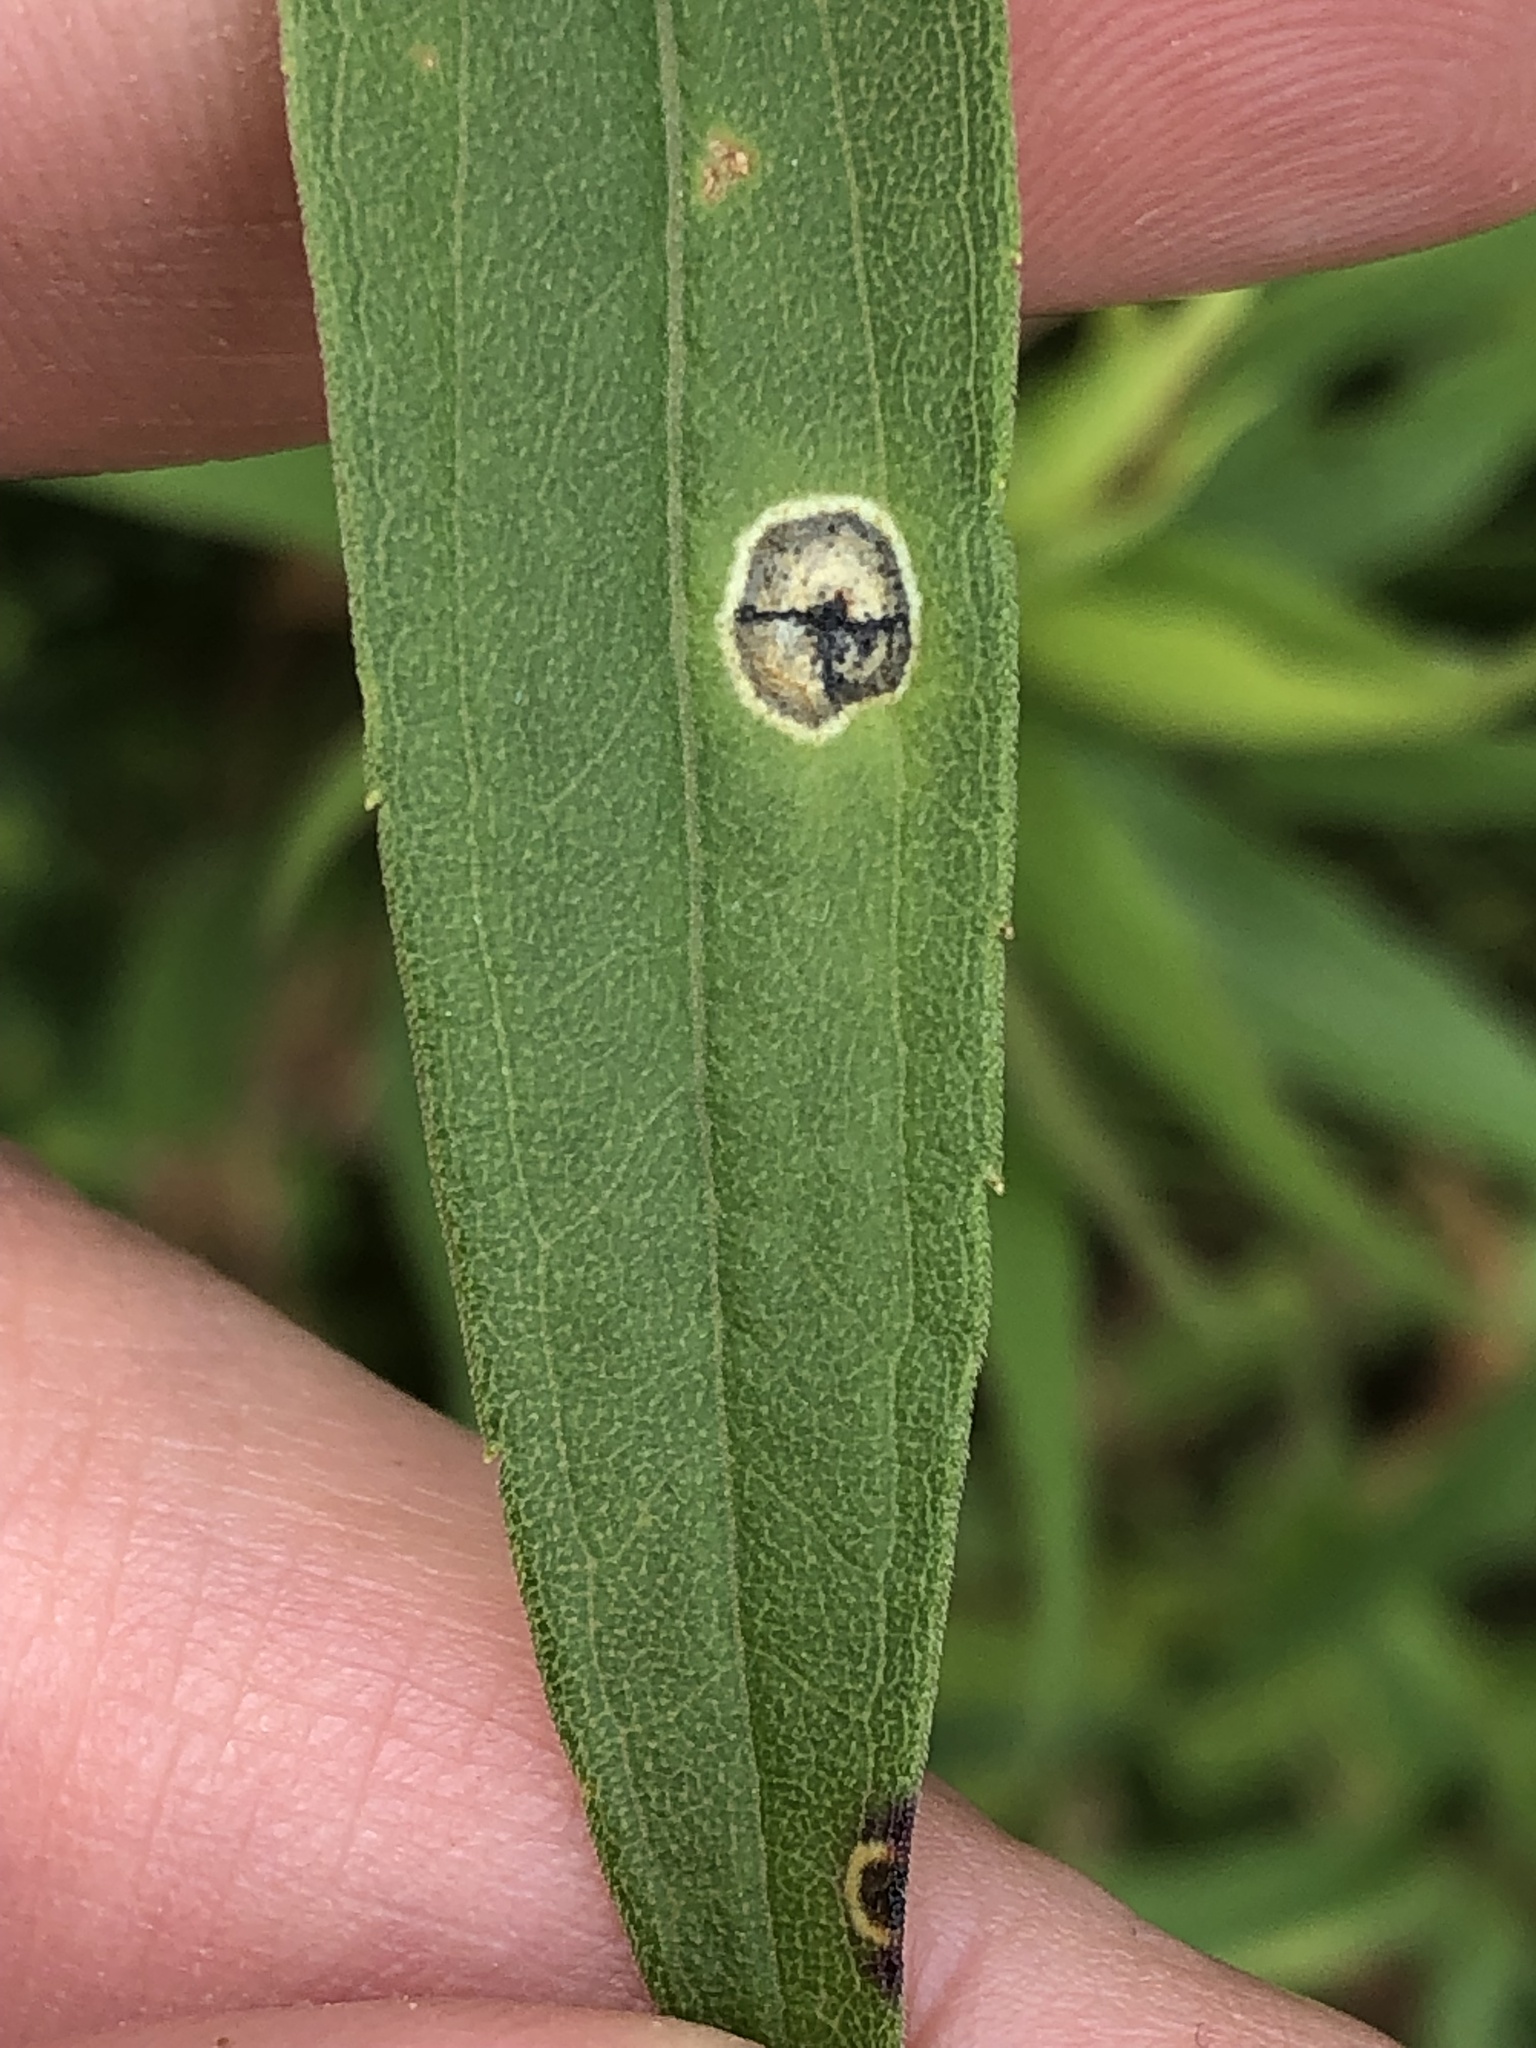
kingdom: Animalia
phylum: Arthropoda
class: Insecta
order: Diptera
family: Cecidomyiidae
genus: Asteromyia
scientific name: Asteromyia carbonifera
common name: Carbonifera goldenrod gall midge
